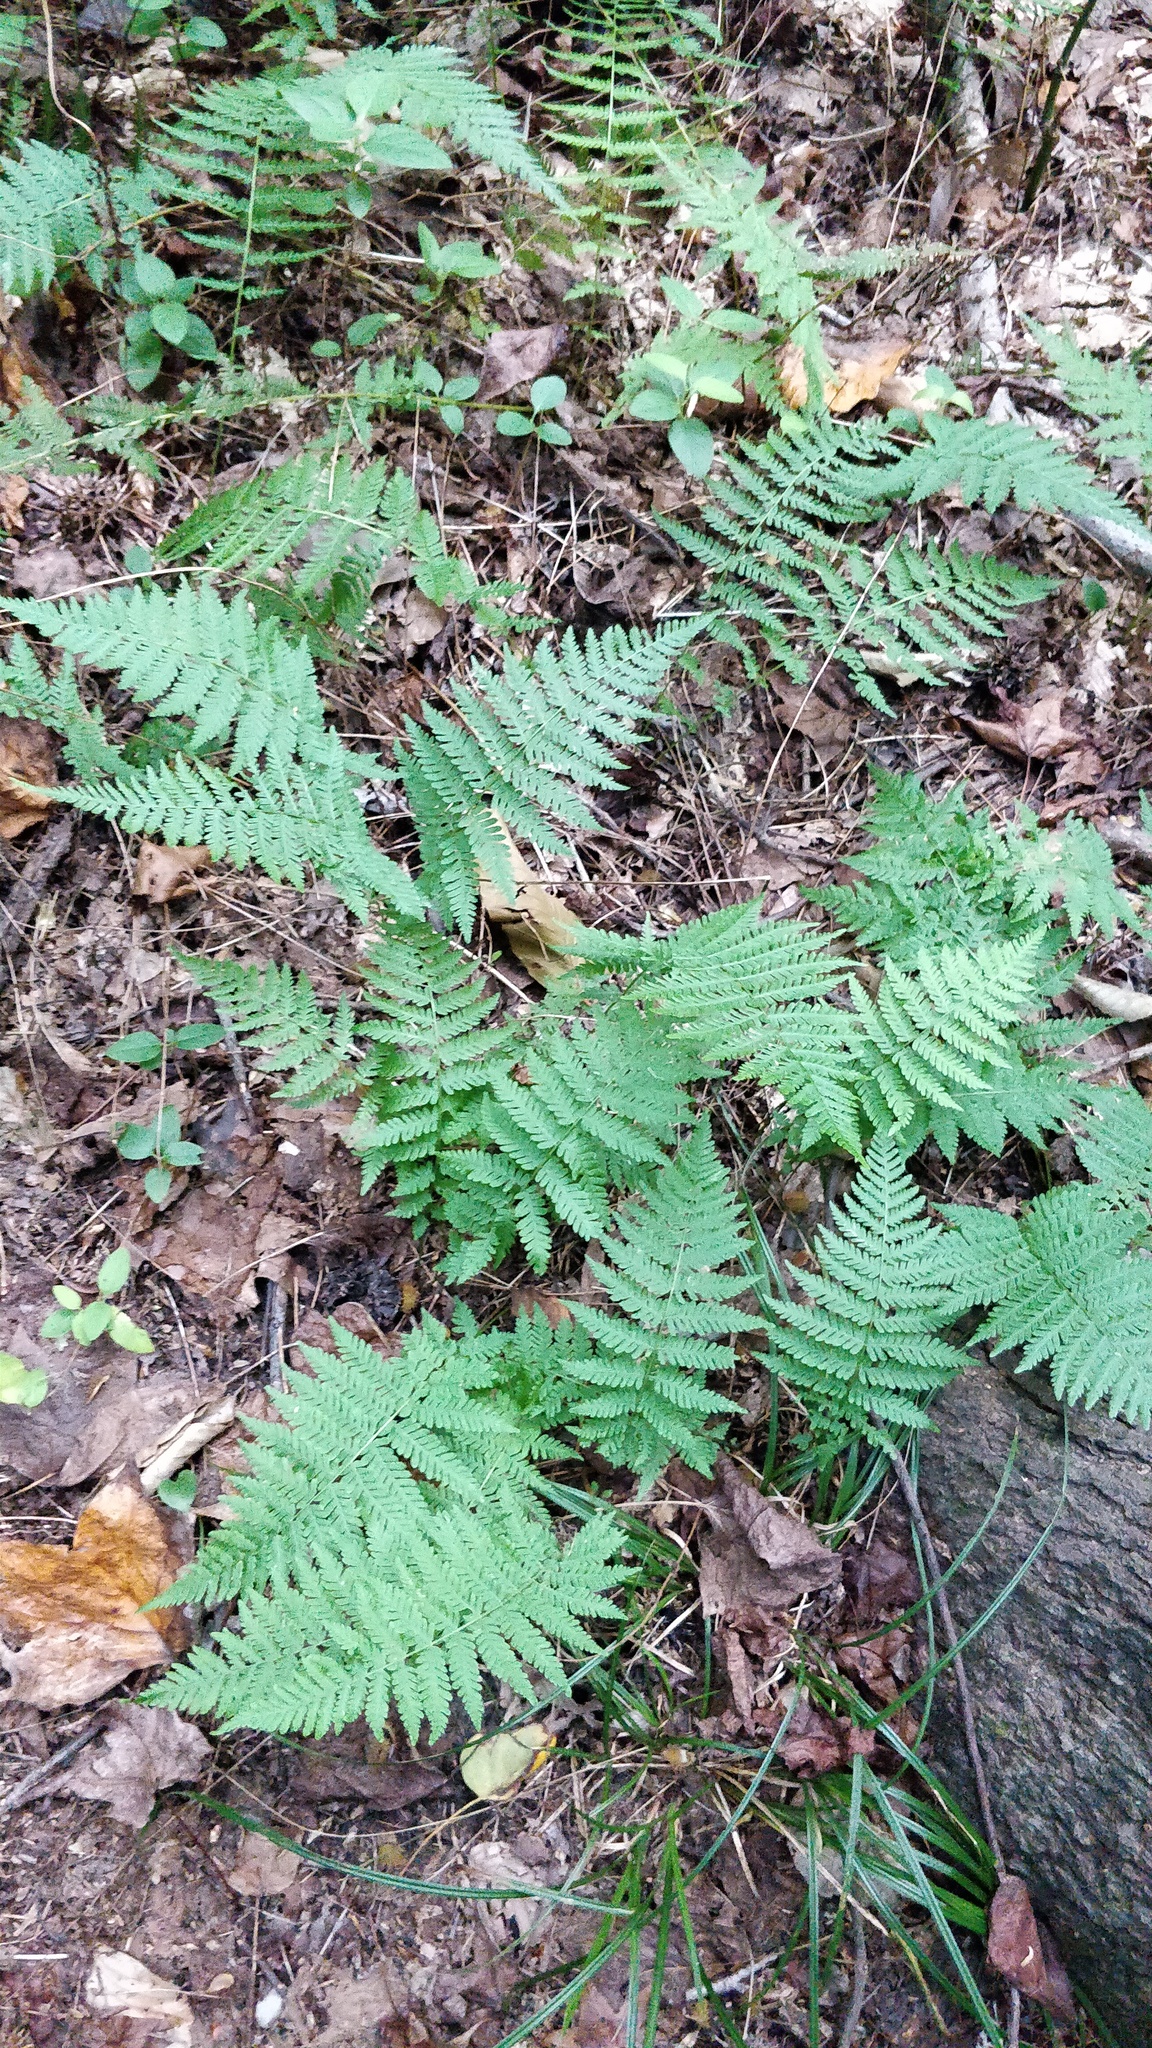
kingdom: Plantae
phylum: Tracheophyta
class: Polypodiopsida
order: Polypodiales
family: Thelypteridaceae
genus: Amauropelta
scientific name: Amauropelta noveboracensis
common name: New york fern
